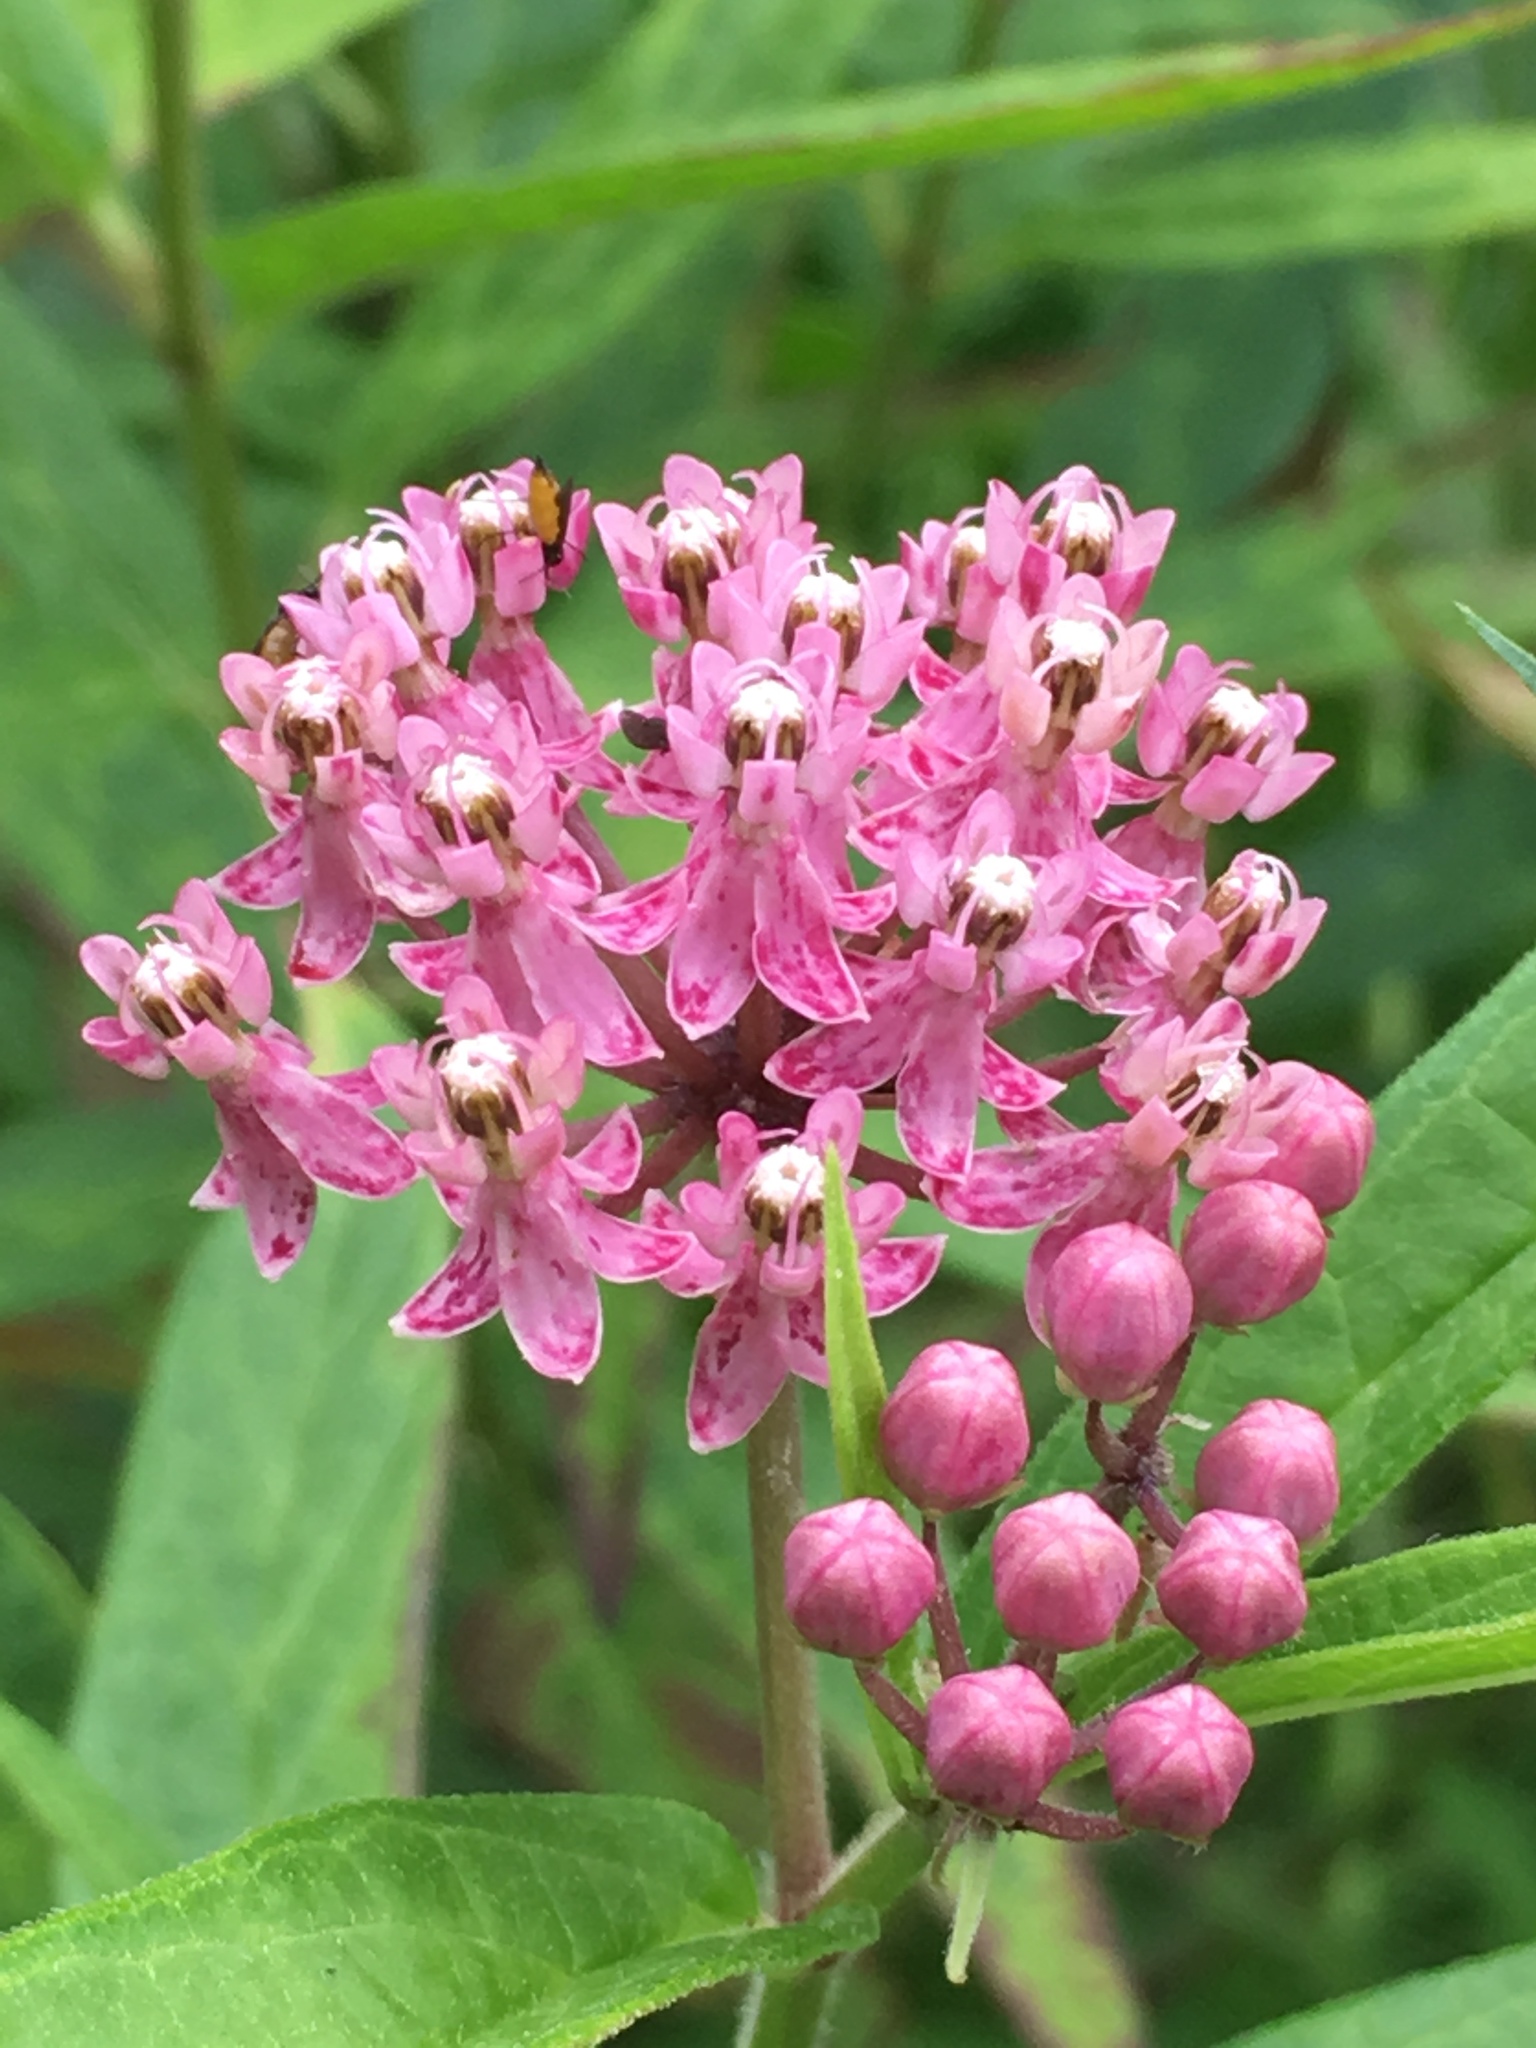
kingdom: Plantae
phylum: Tracheophyta
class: Magnoliopsida
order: Gentianales
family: Apocynaceae
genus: Asclepias
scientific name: Asclepias incarnata
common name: Swamp milkweed
